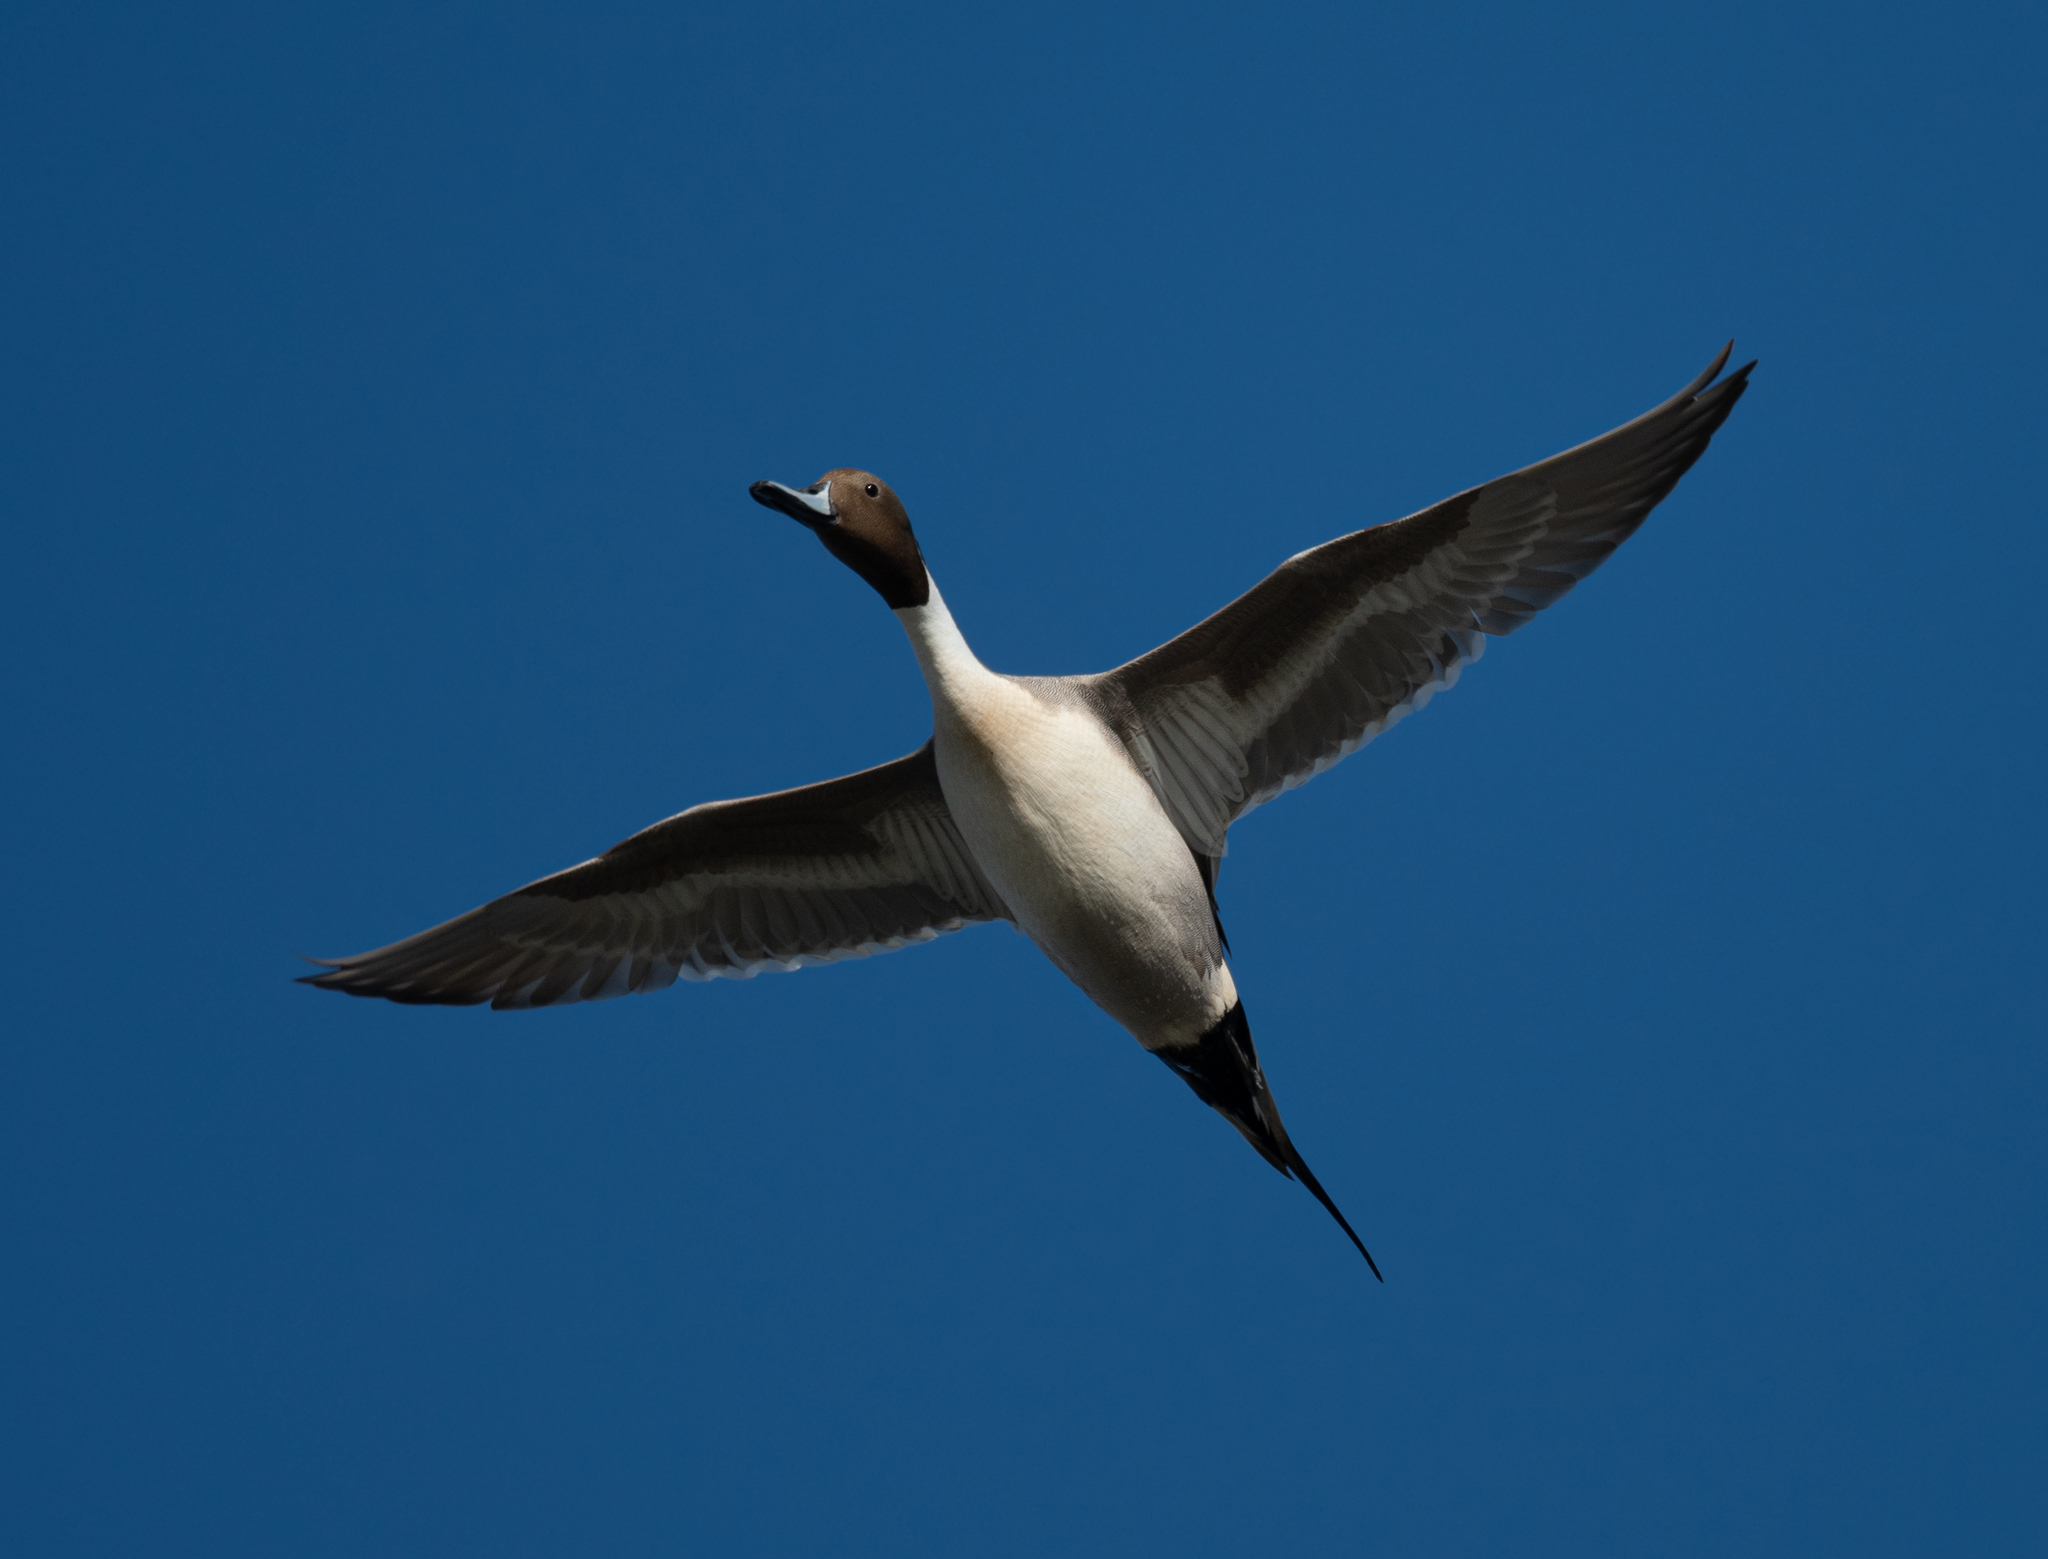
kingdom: Animalia
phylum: Chordata
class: Aves
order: Anseriformes
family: Anatidae
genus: Anas
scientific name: Anas acuta
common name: Northern pintail
